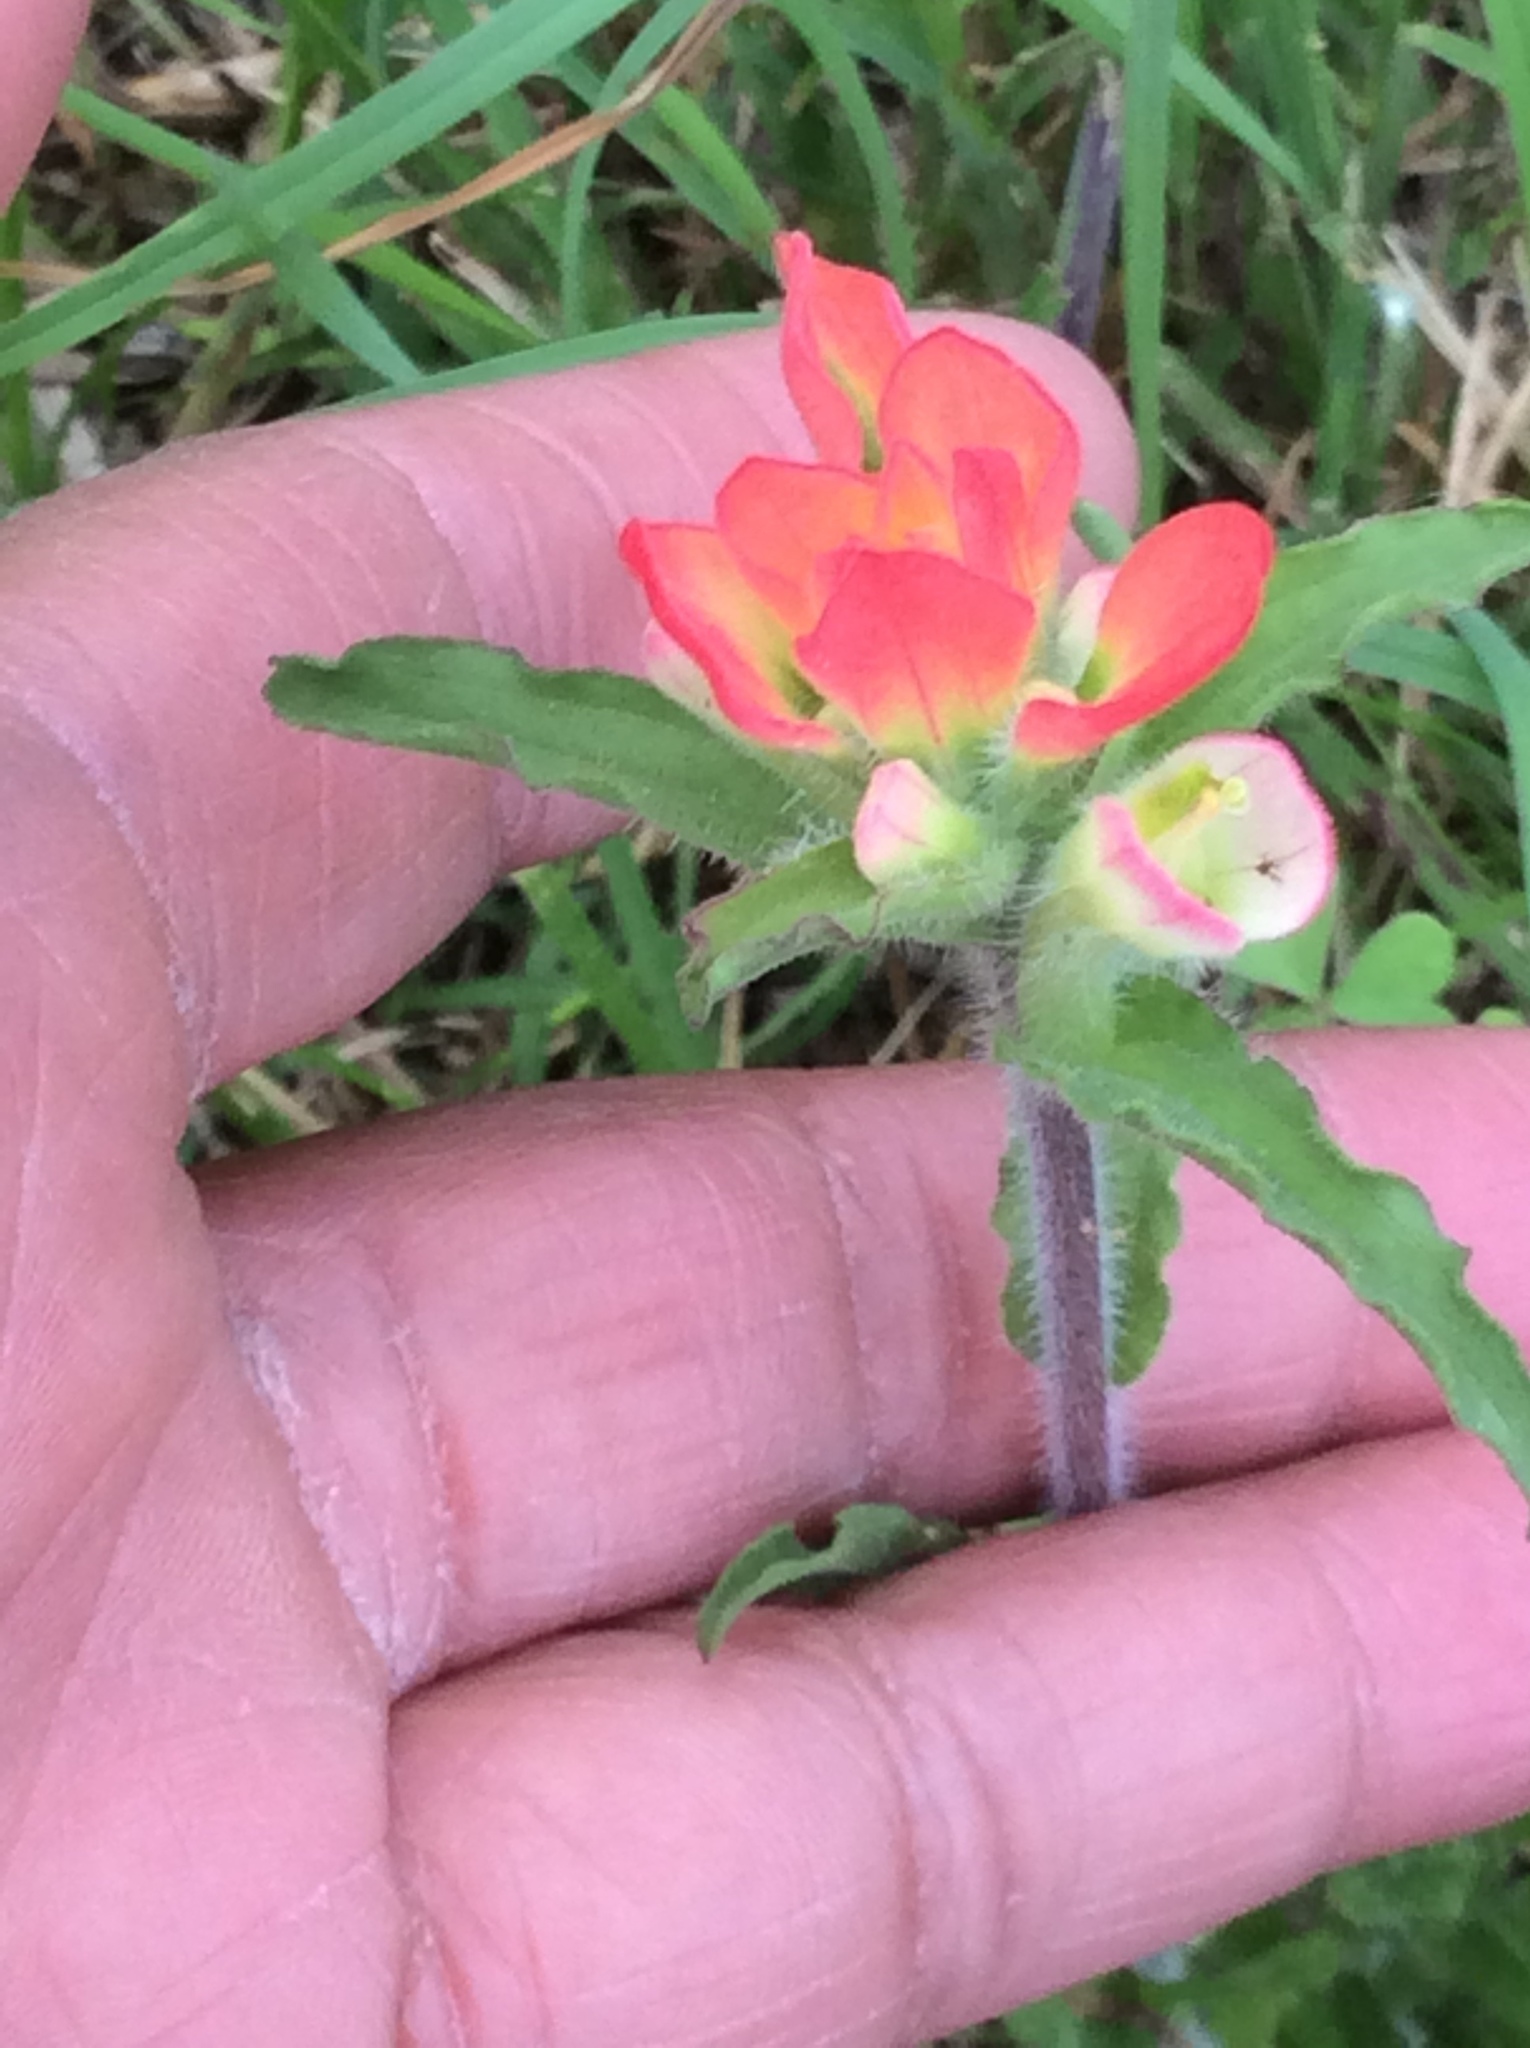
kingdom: Plantae
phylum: Tracheophyta
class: Magnoliopsida
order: Lamiales
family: Orobanchaceae
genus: Castilleja
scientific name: Castilleja indivisa
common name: Texas paintbrush
